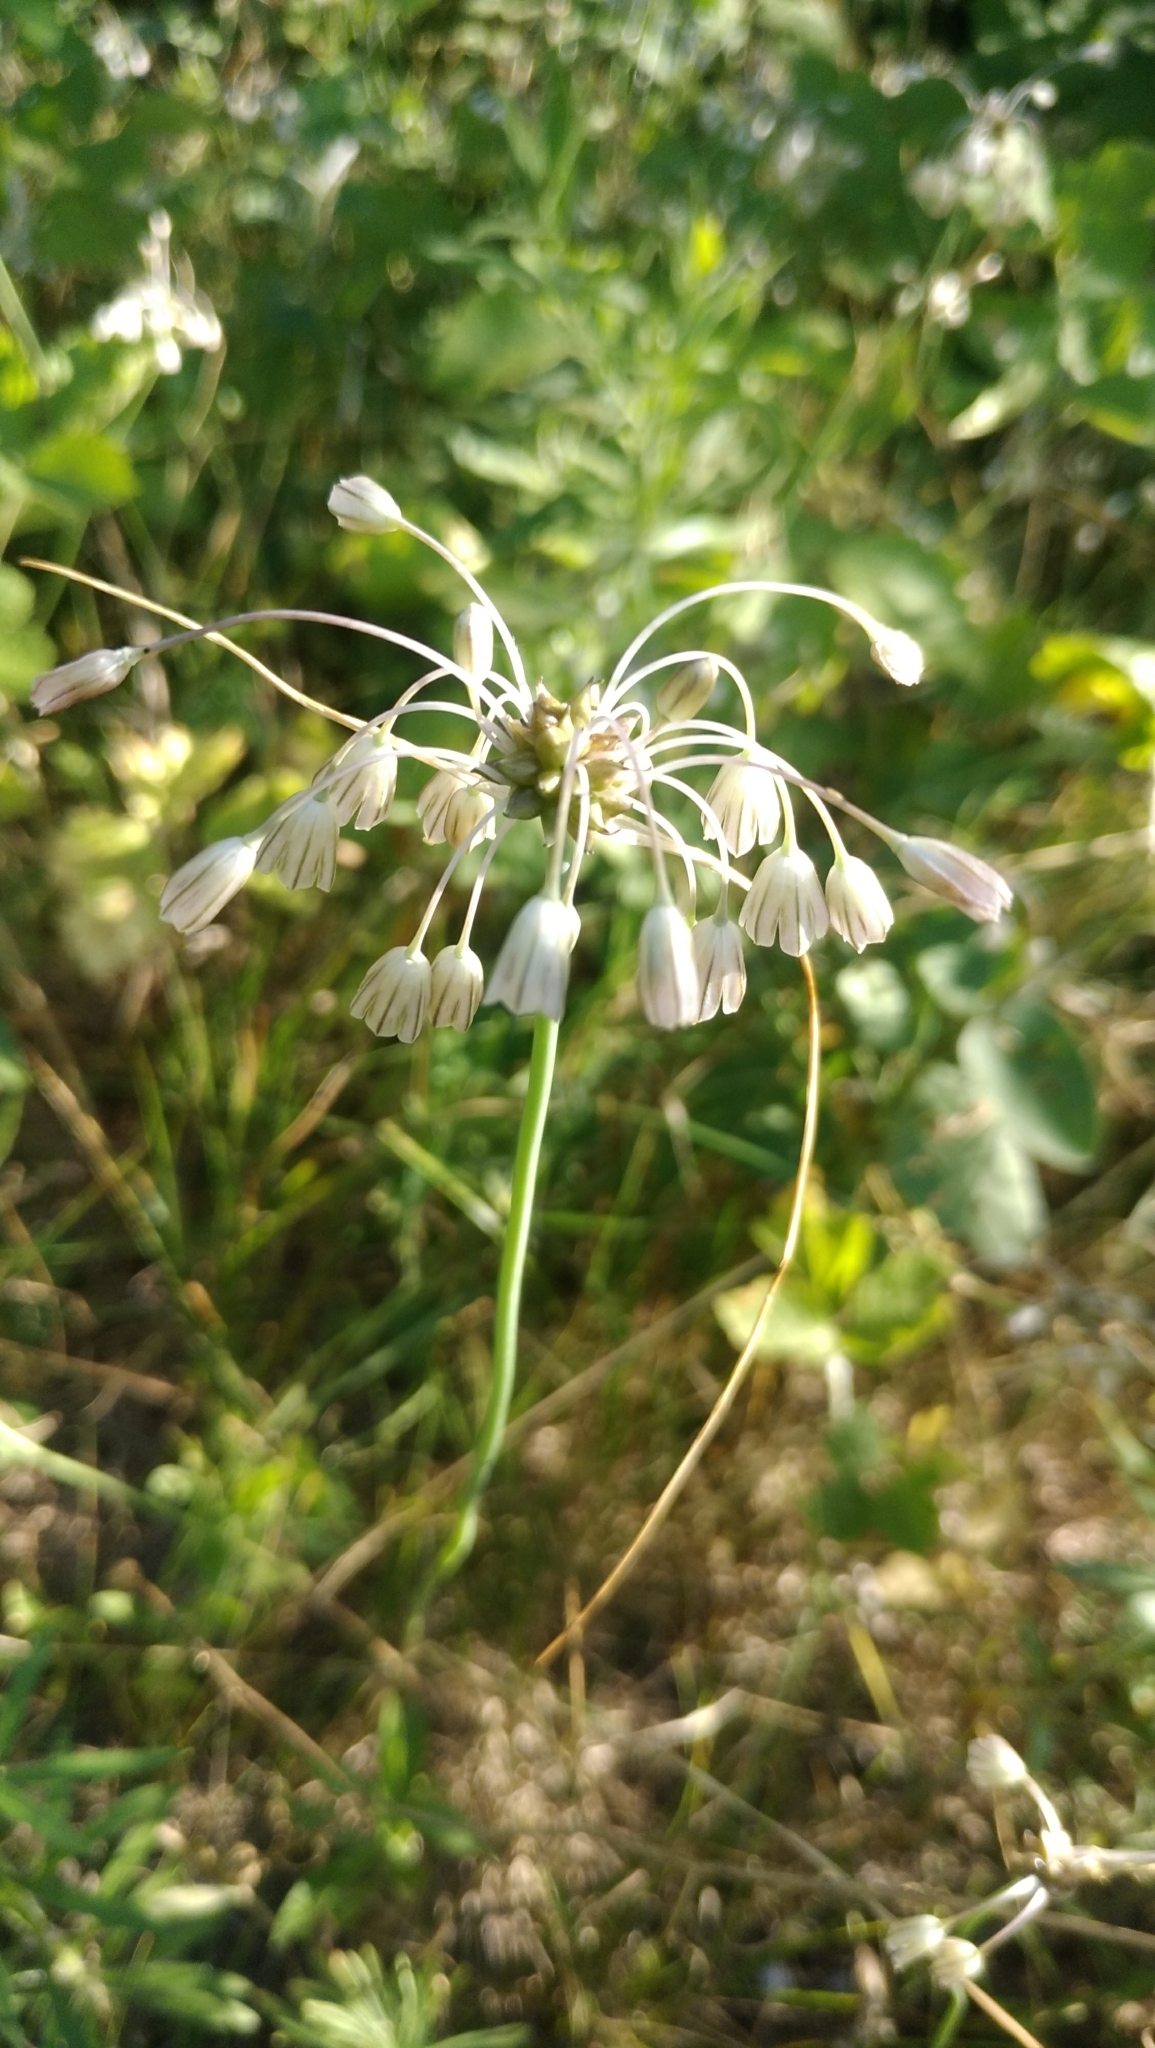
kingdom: Plantae
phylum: Tracheophyta
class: Liliopsida
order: Asparagales
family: Amaryllidaceae
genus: Allium
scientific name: Allium oleraceum
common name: Field garlic
